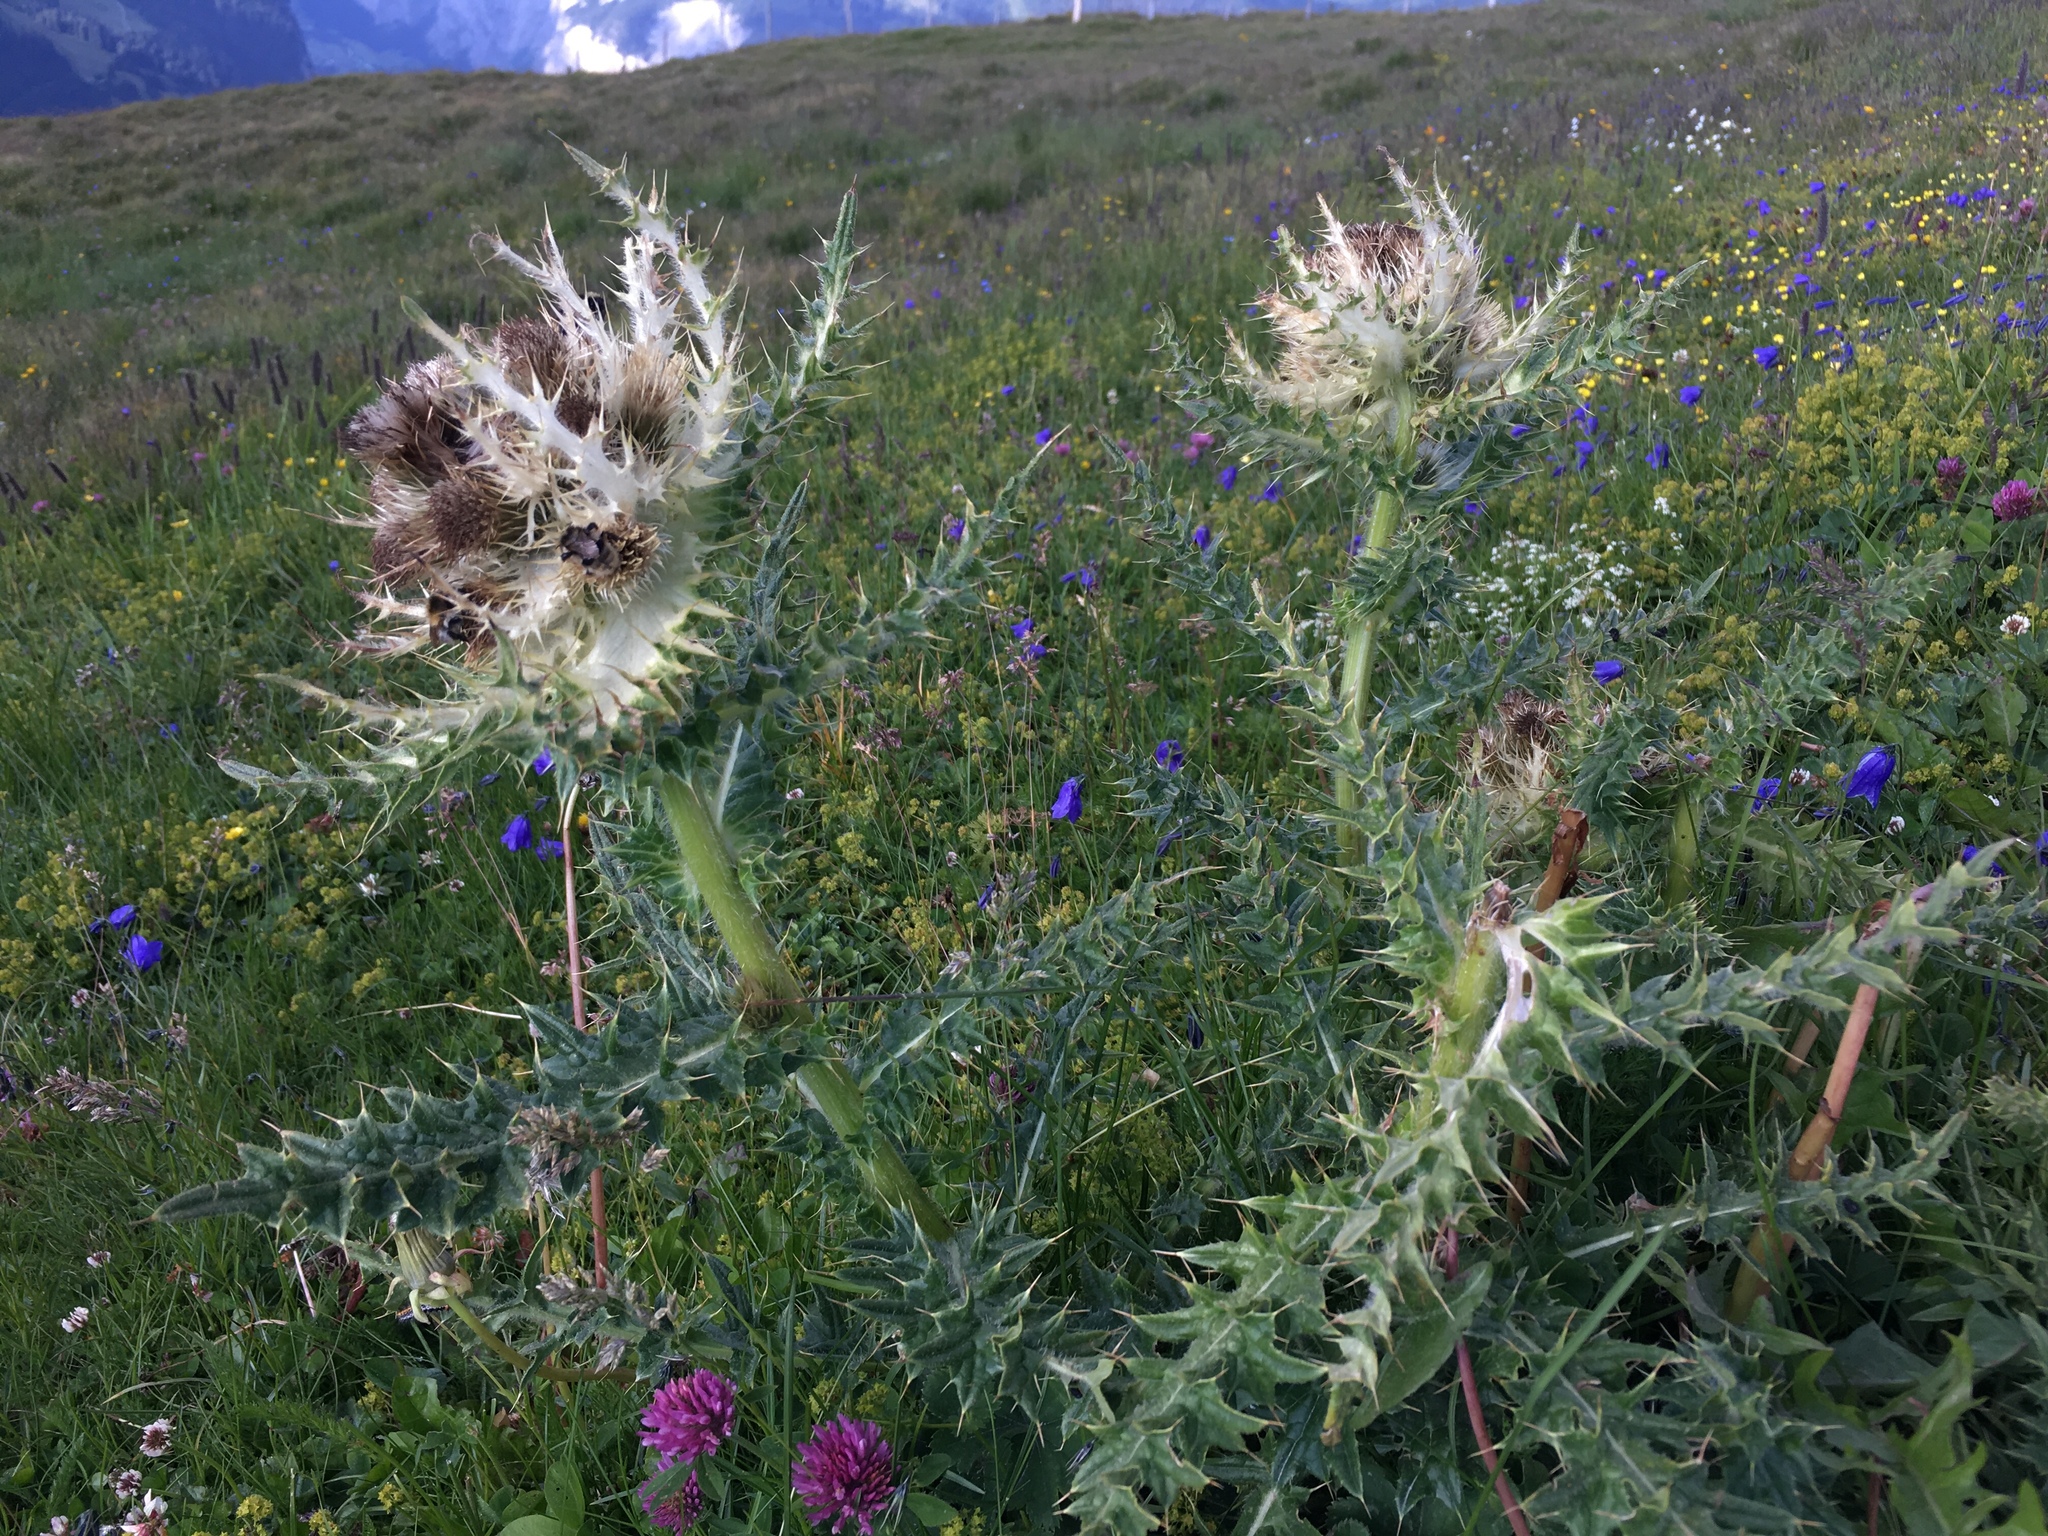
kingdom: Plantae
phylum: Tracheophyta
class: Magnoliopsida
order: Asterales
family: Asteraceae
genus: Cirsium
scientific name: Cirsium spinosissimum
